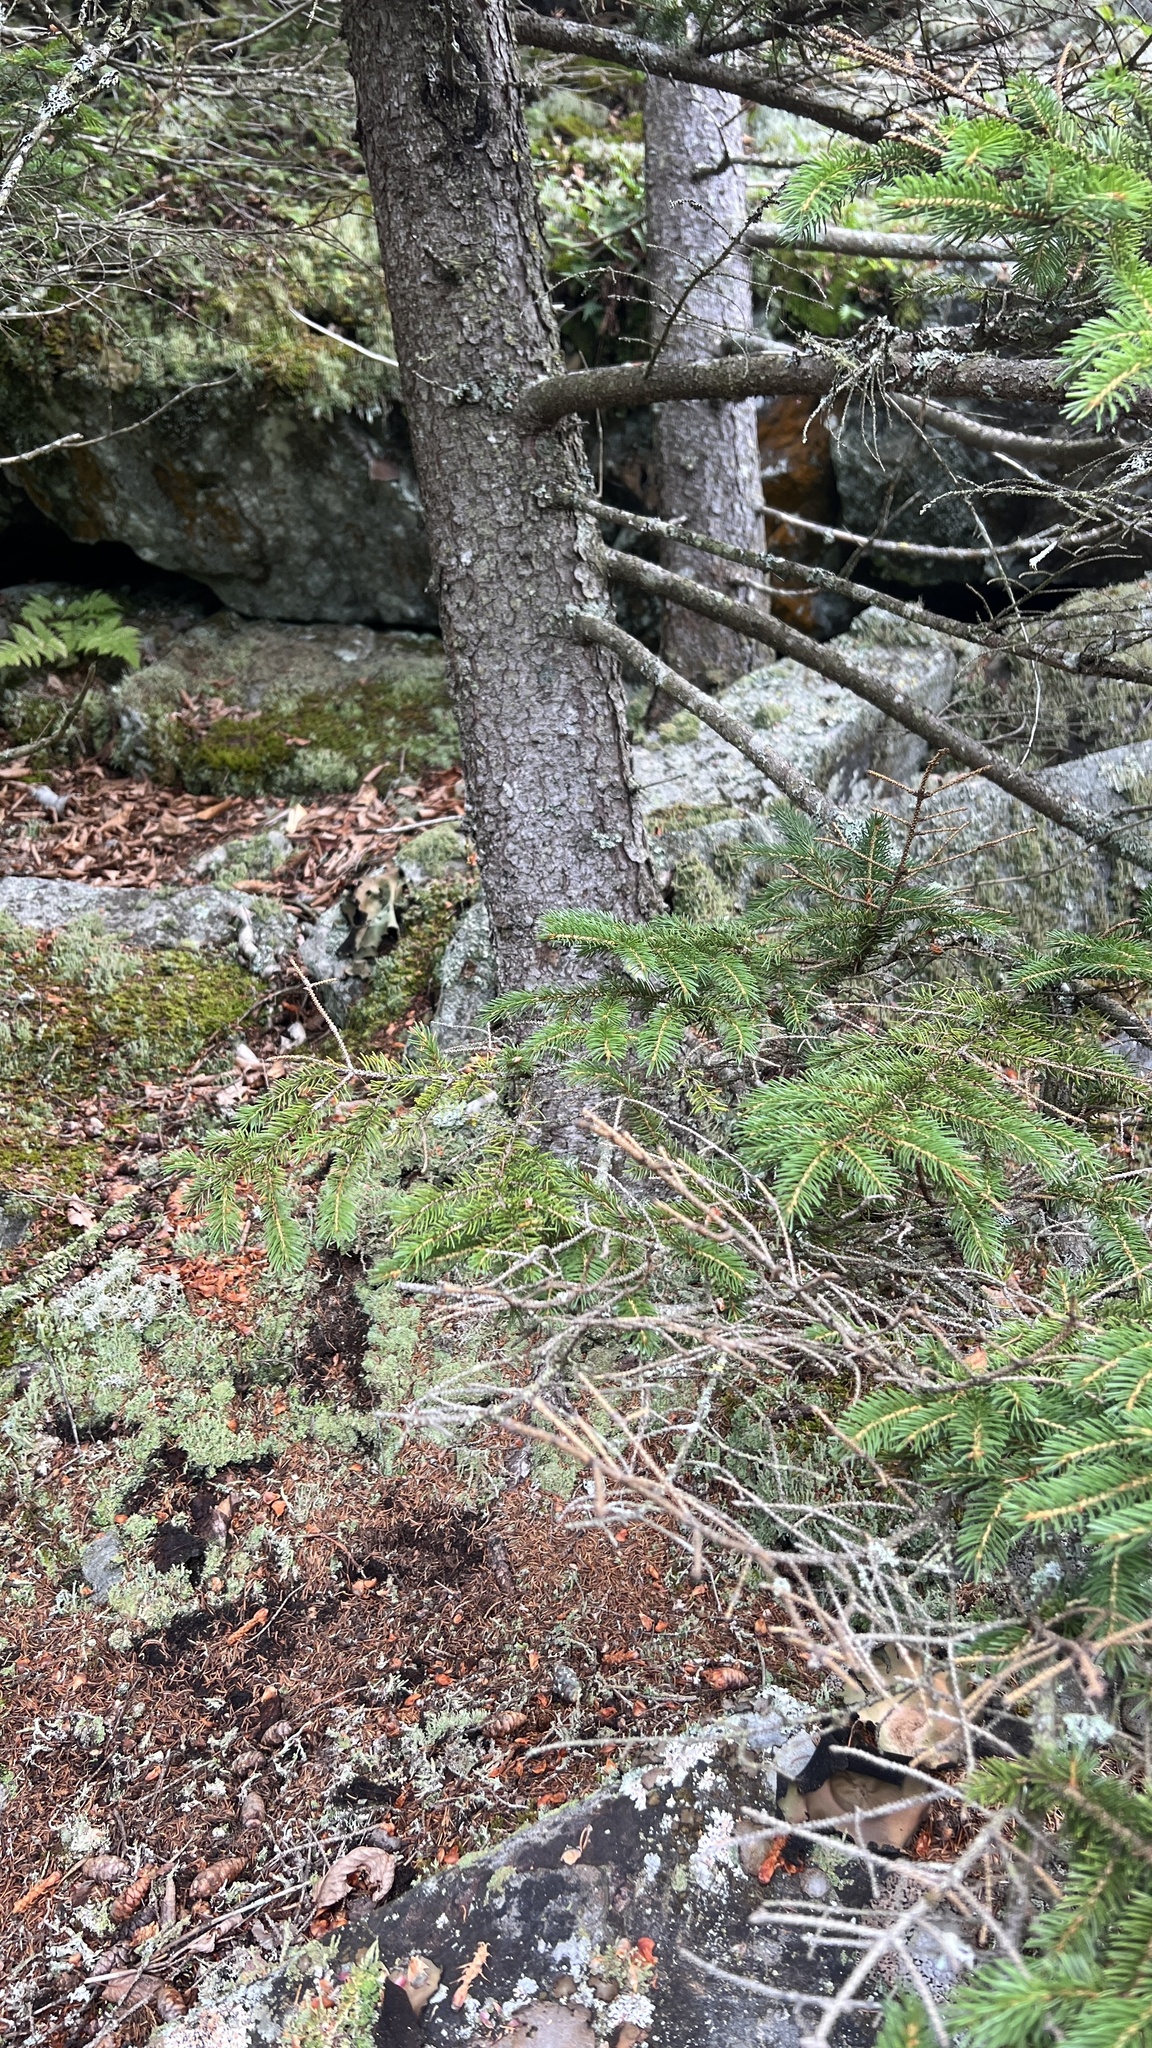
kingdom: Plantae
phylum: Tracheophyta
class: Pinopsida
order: Pinales
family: Pinaceae
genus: Picea
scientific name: Picea rubens
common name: Red spruce
